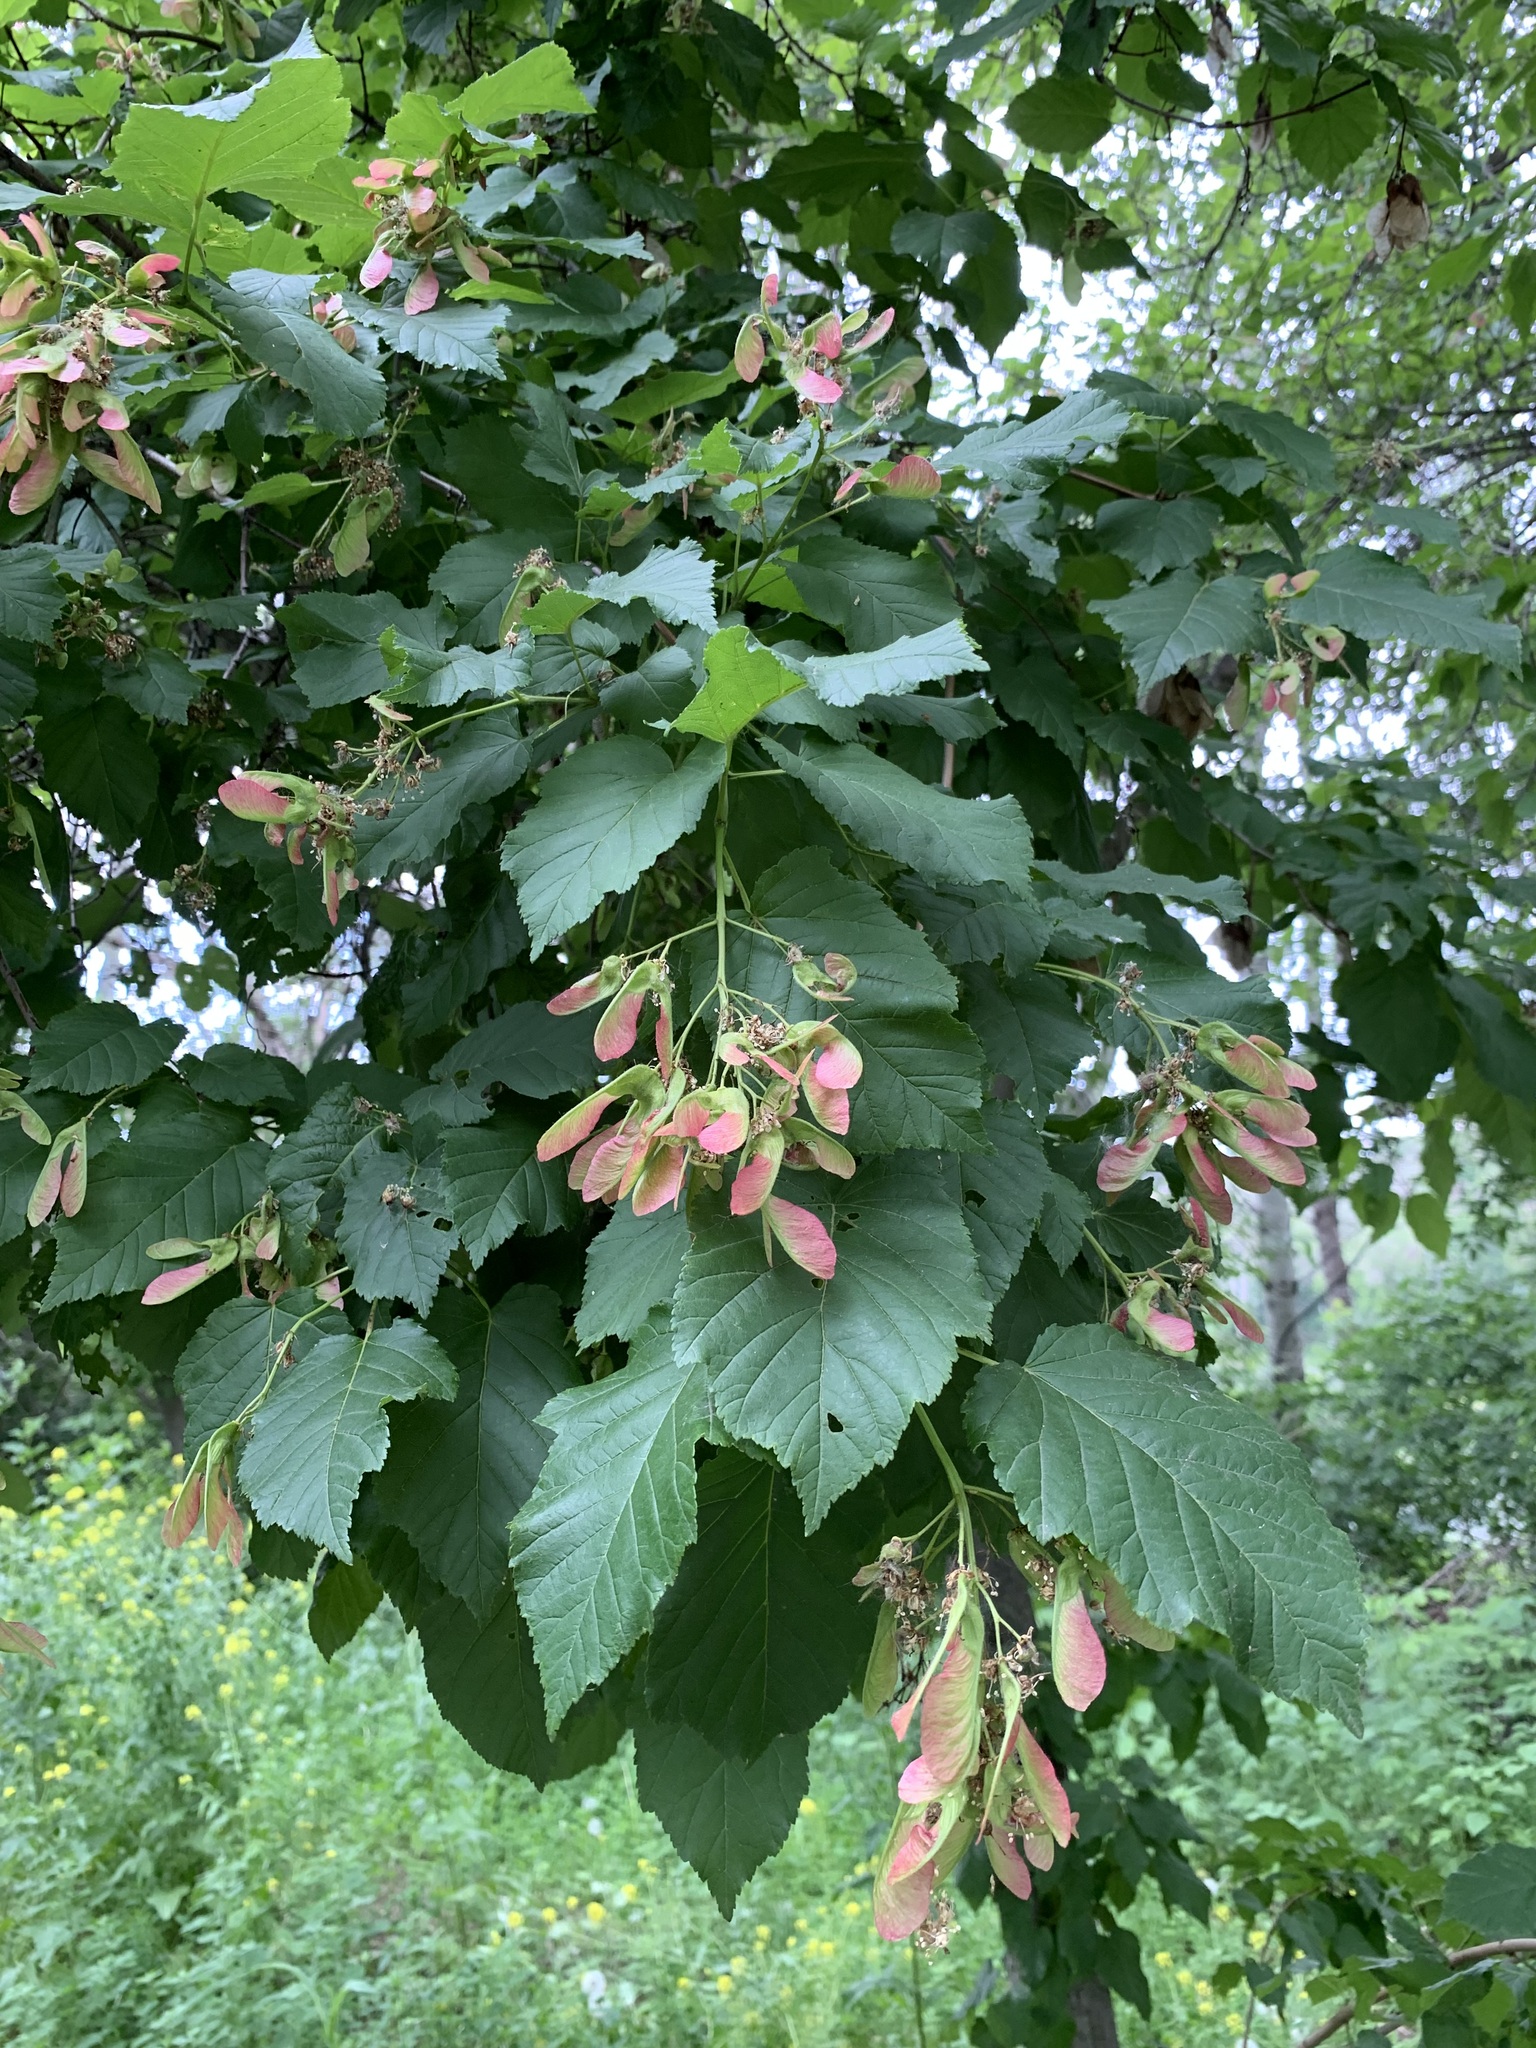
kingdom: Plantae
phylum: Tracheophyta
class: Magnoliopsida
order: Sapindales
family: Sapindaceae
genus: Acer
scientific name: Acer tataricum
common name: Tartar maple
